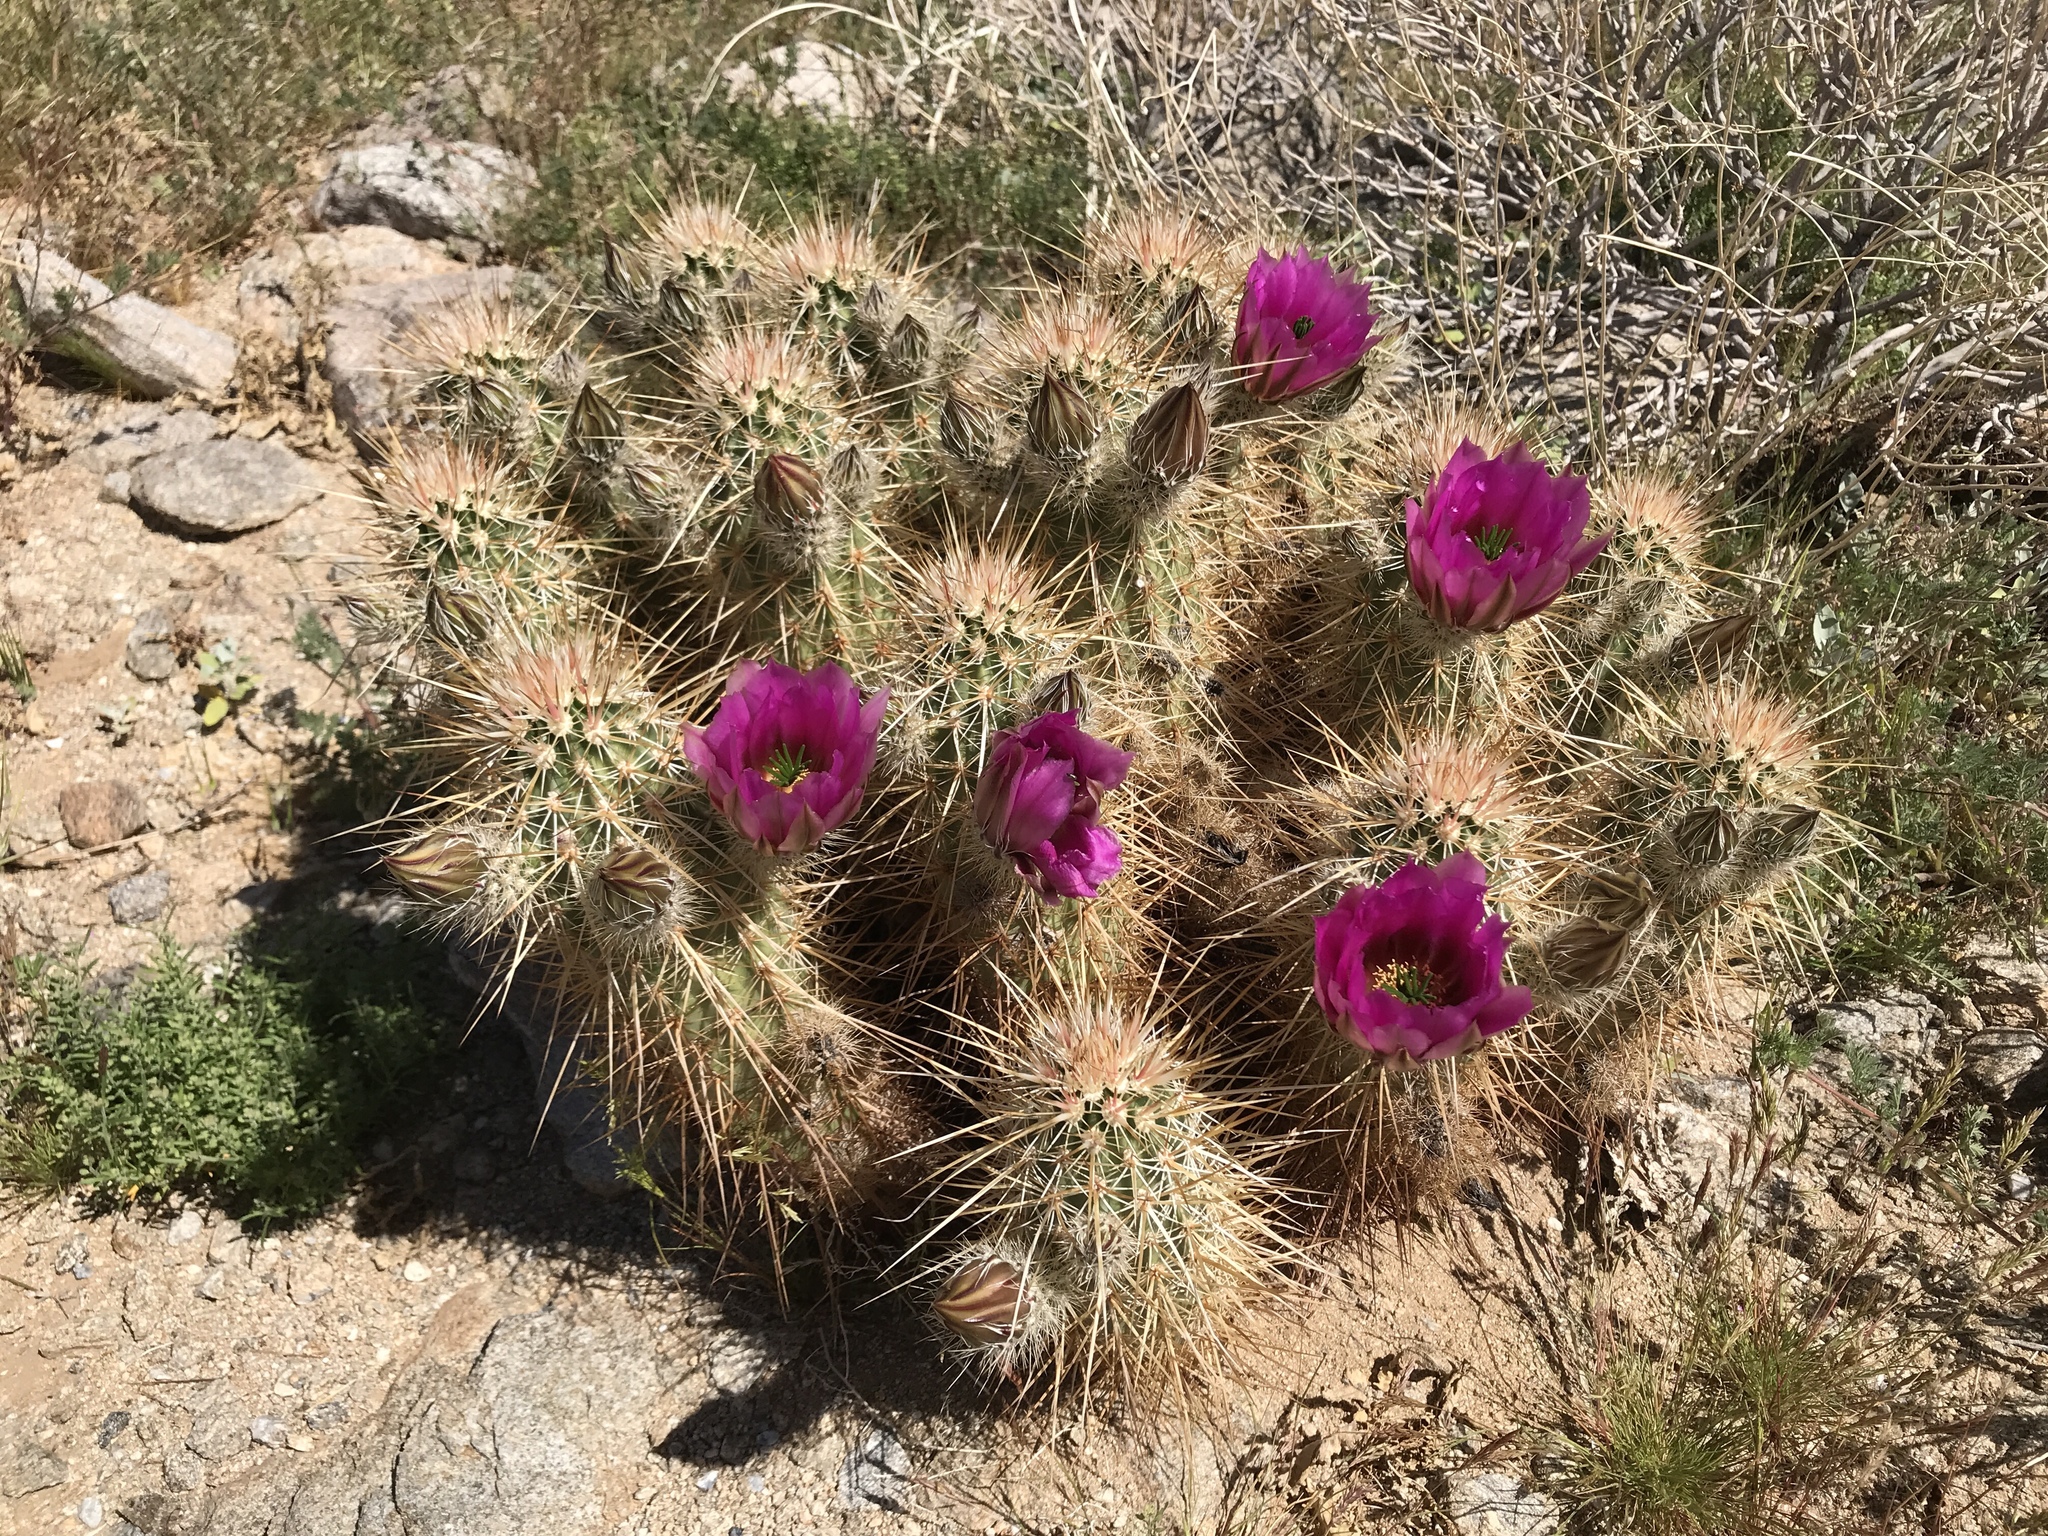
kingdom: Plantae
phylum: Tracheophyta
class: Magnoliopsida
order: Caryophyllales
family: Cactaceae
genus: Echinocereus
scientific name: Echinocereus engelmannii
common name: Engelmann's hedgehog cactus
